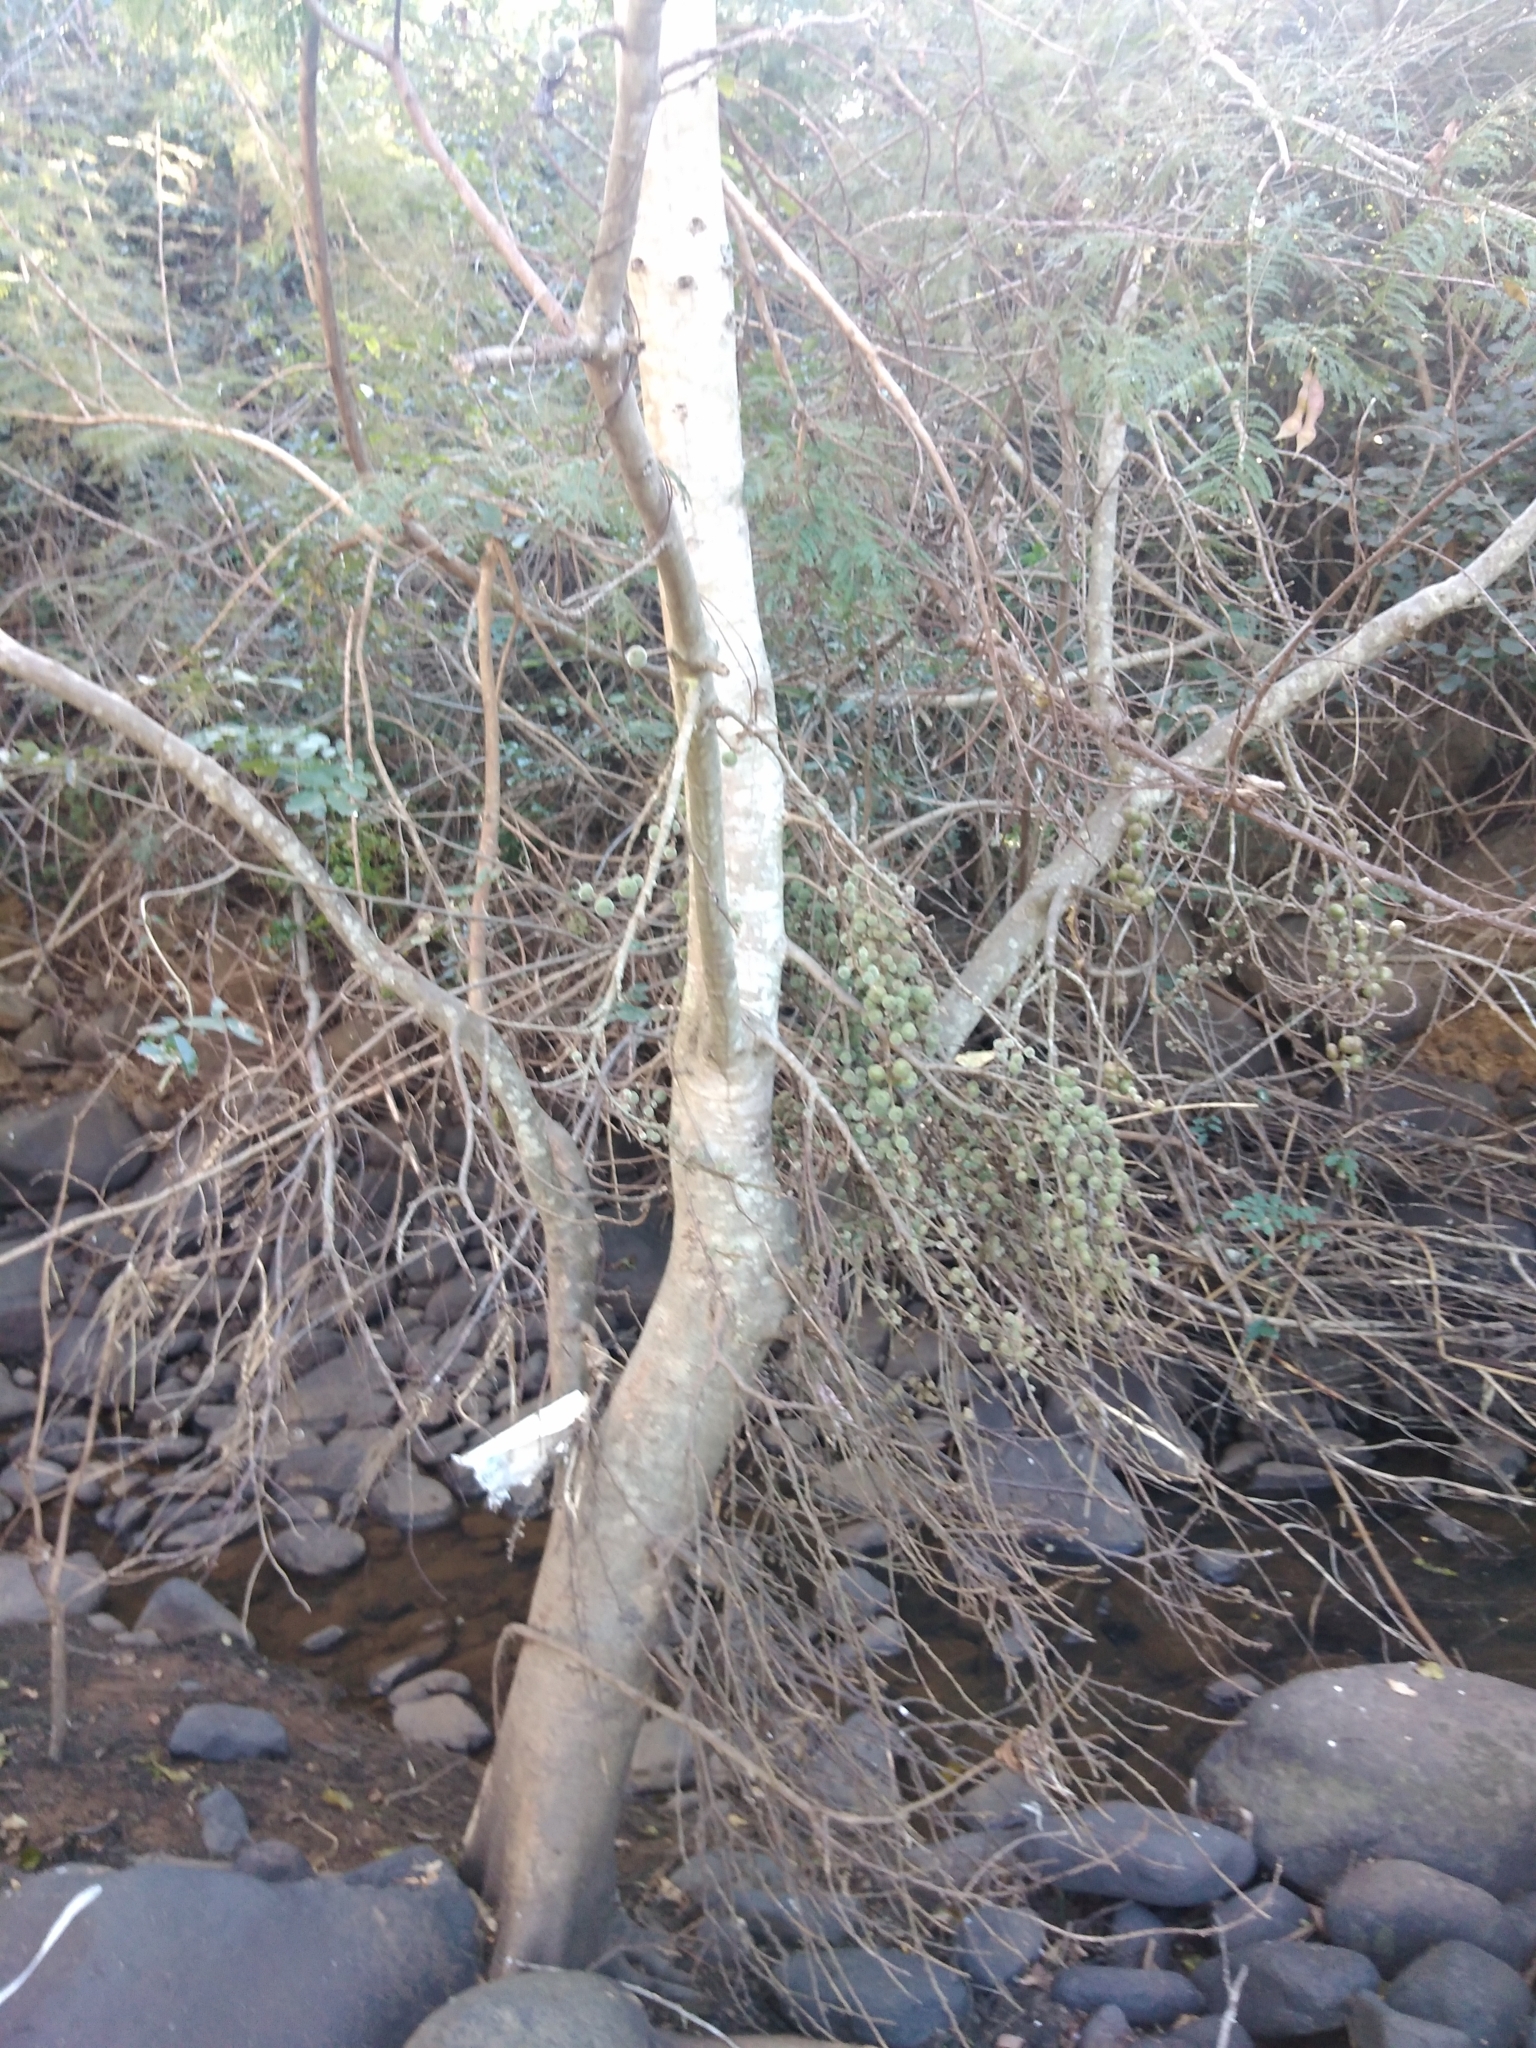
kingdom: Plantae
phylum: Tracheophyta
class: Magnoliopsida
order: Rosales
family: Moraceae
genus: Ficus
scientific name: Ficus sycomorus
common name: Sycomore
